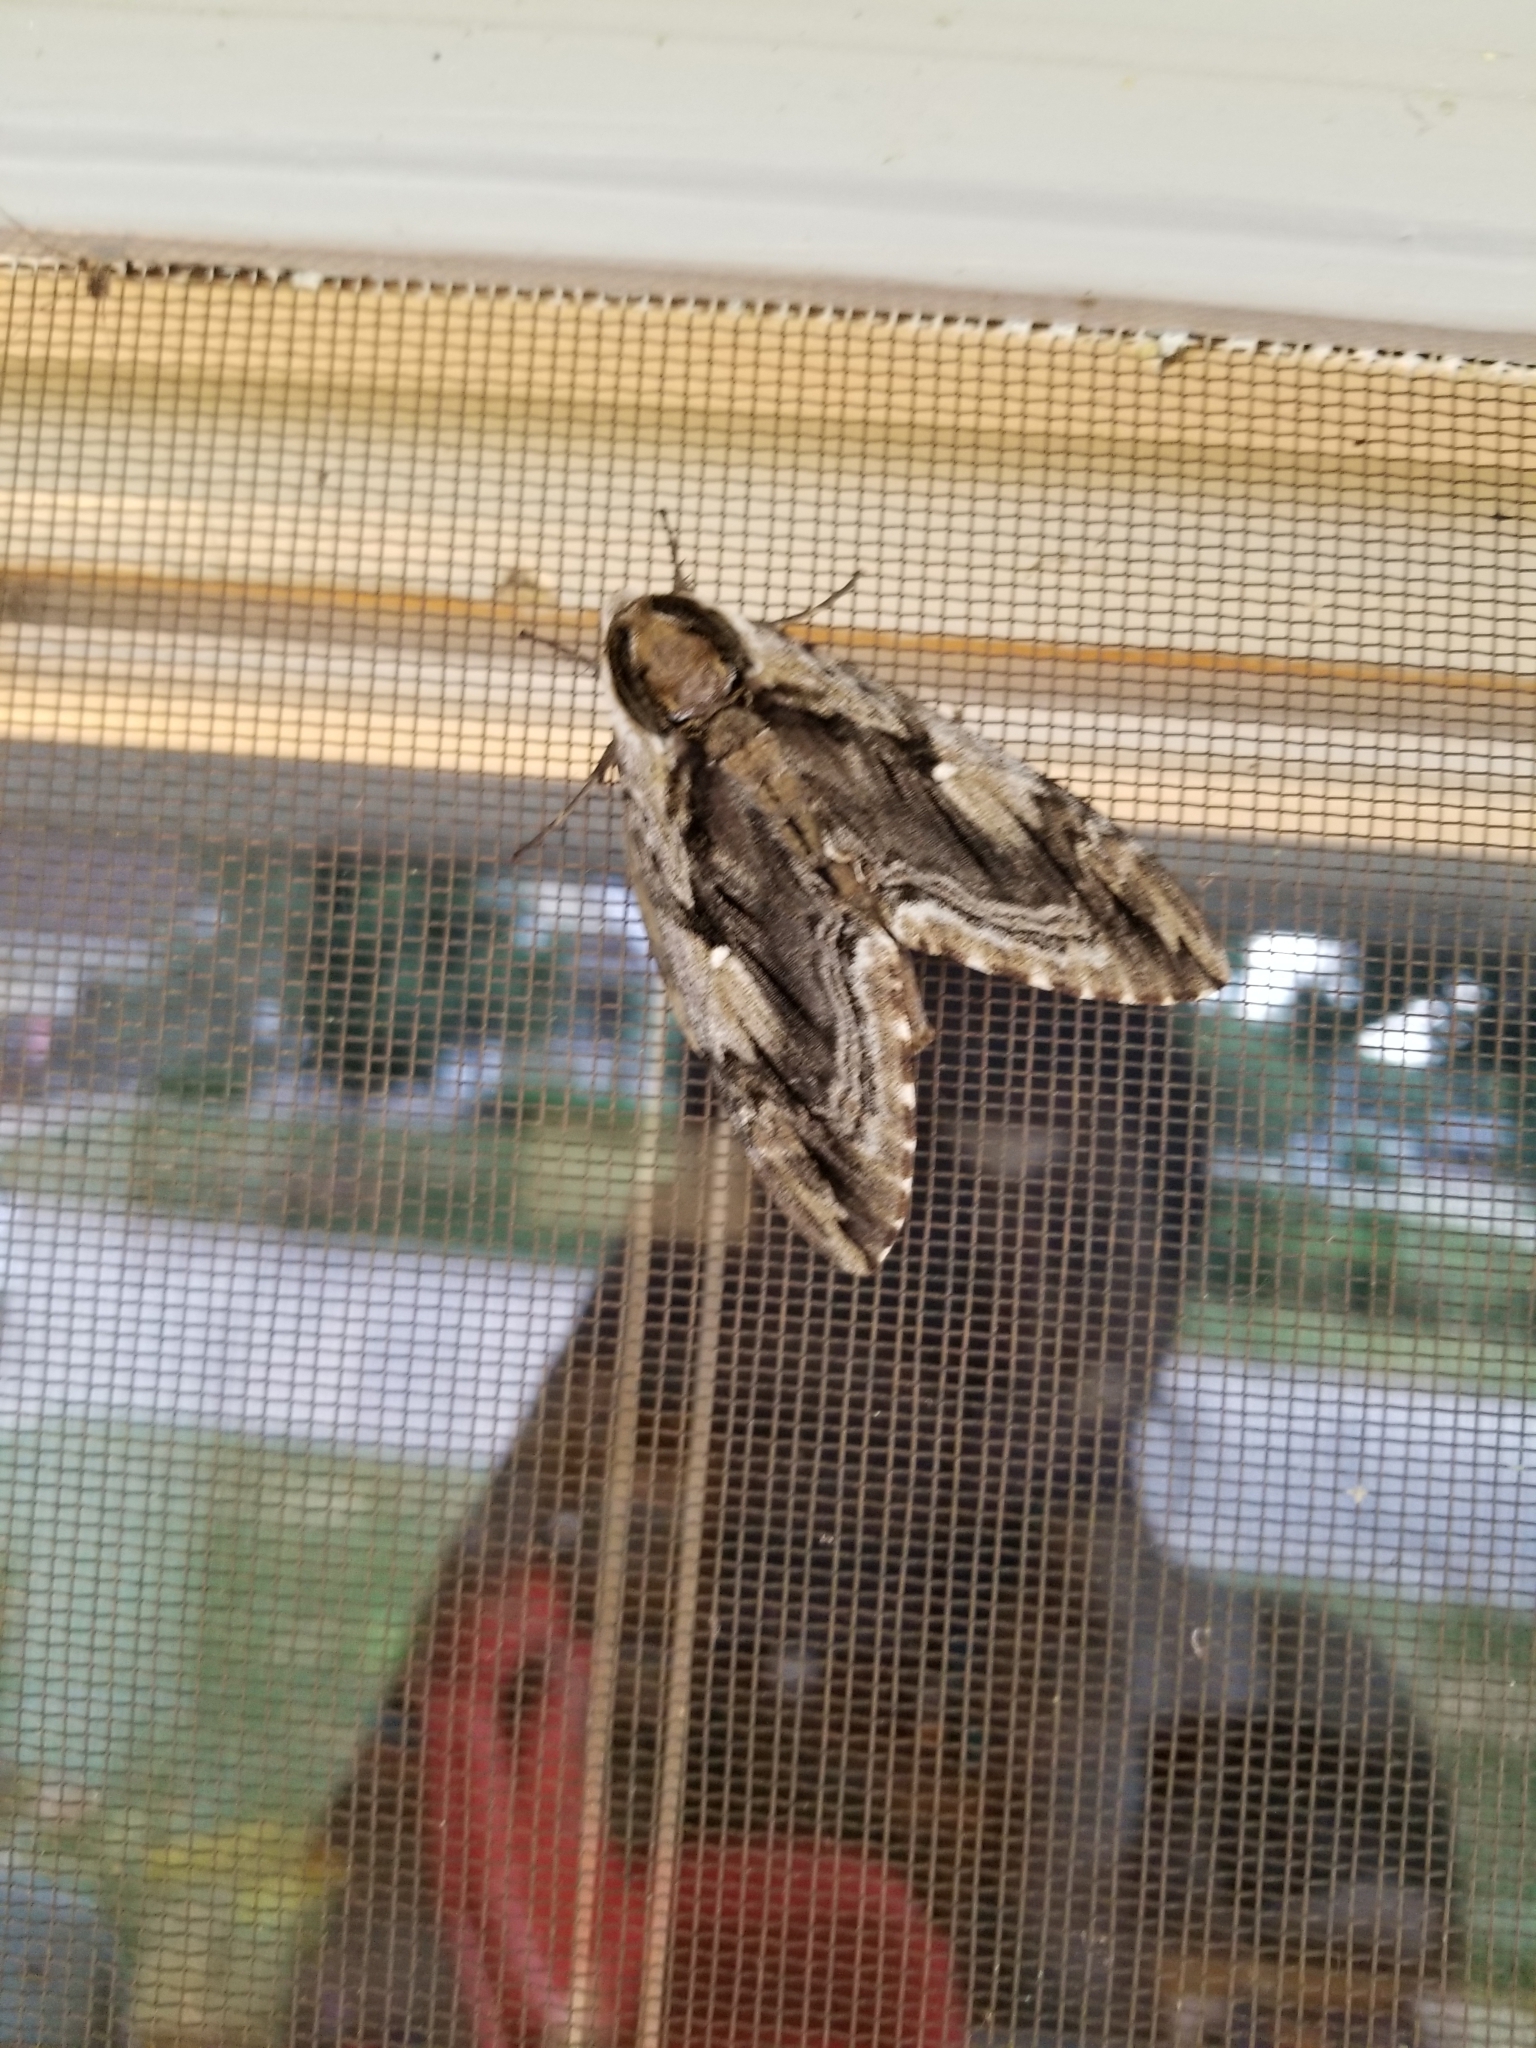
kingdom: Animalia
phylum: Arthropoda
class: Insecta
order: Lepidoptera
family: Sphingidae
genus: Ceratomia
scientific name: Ceratomia amyntor
